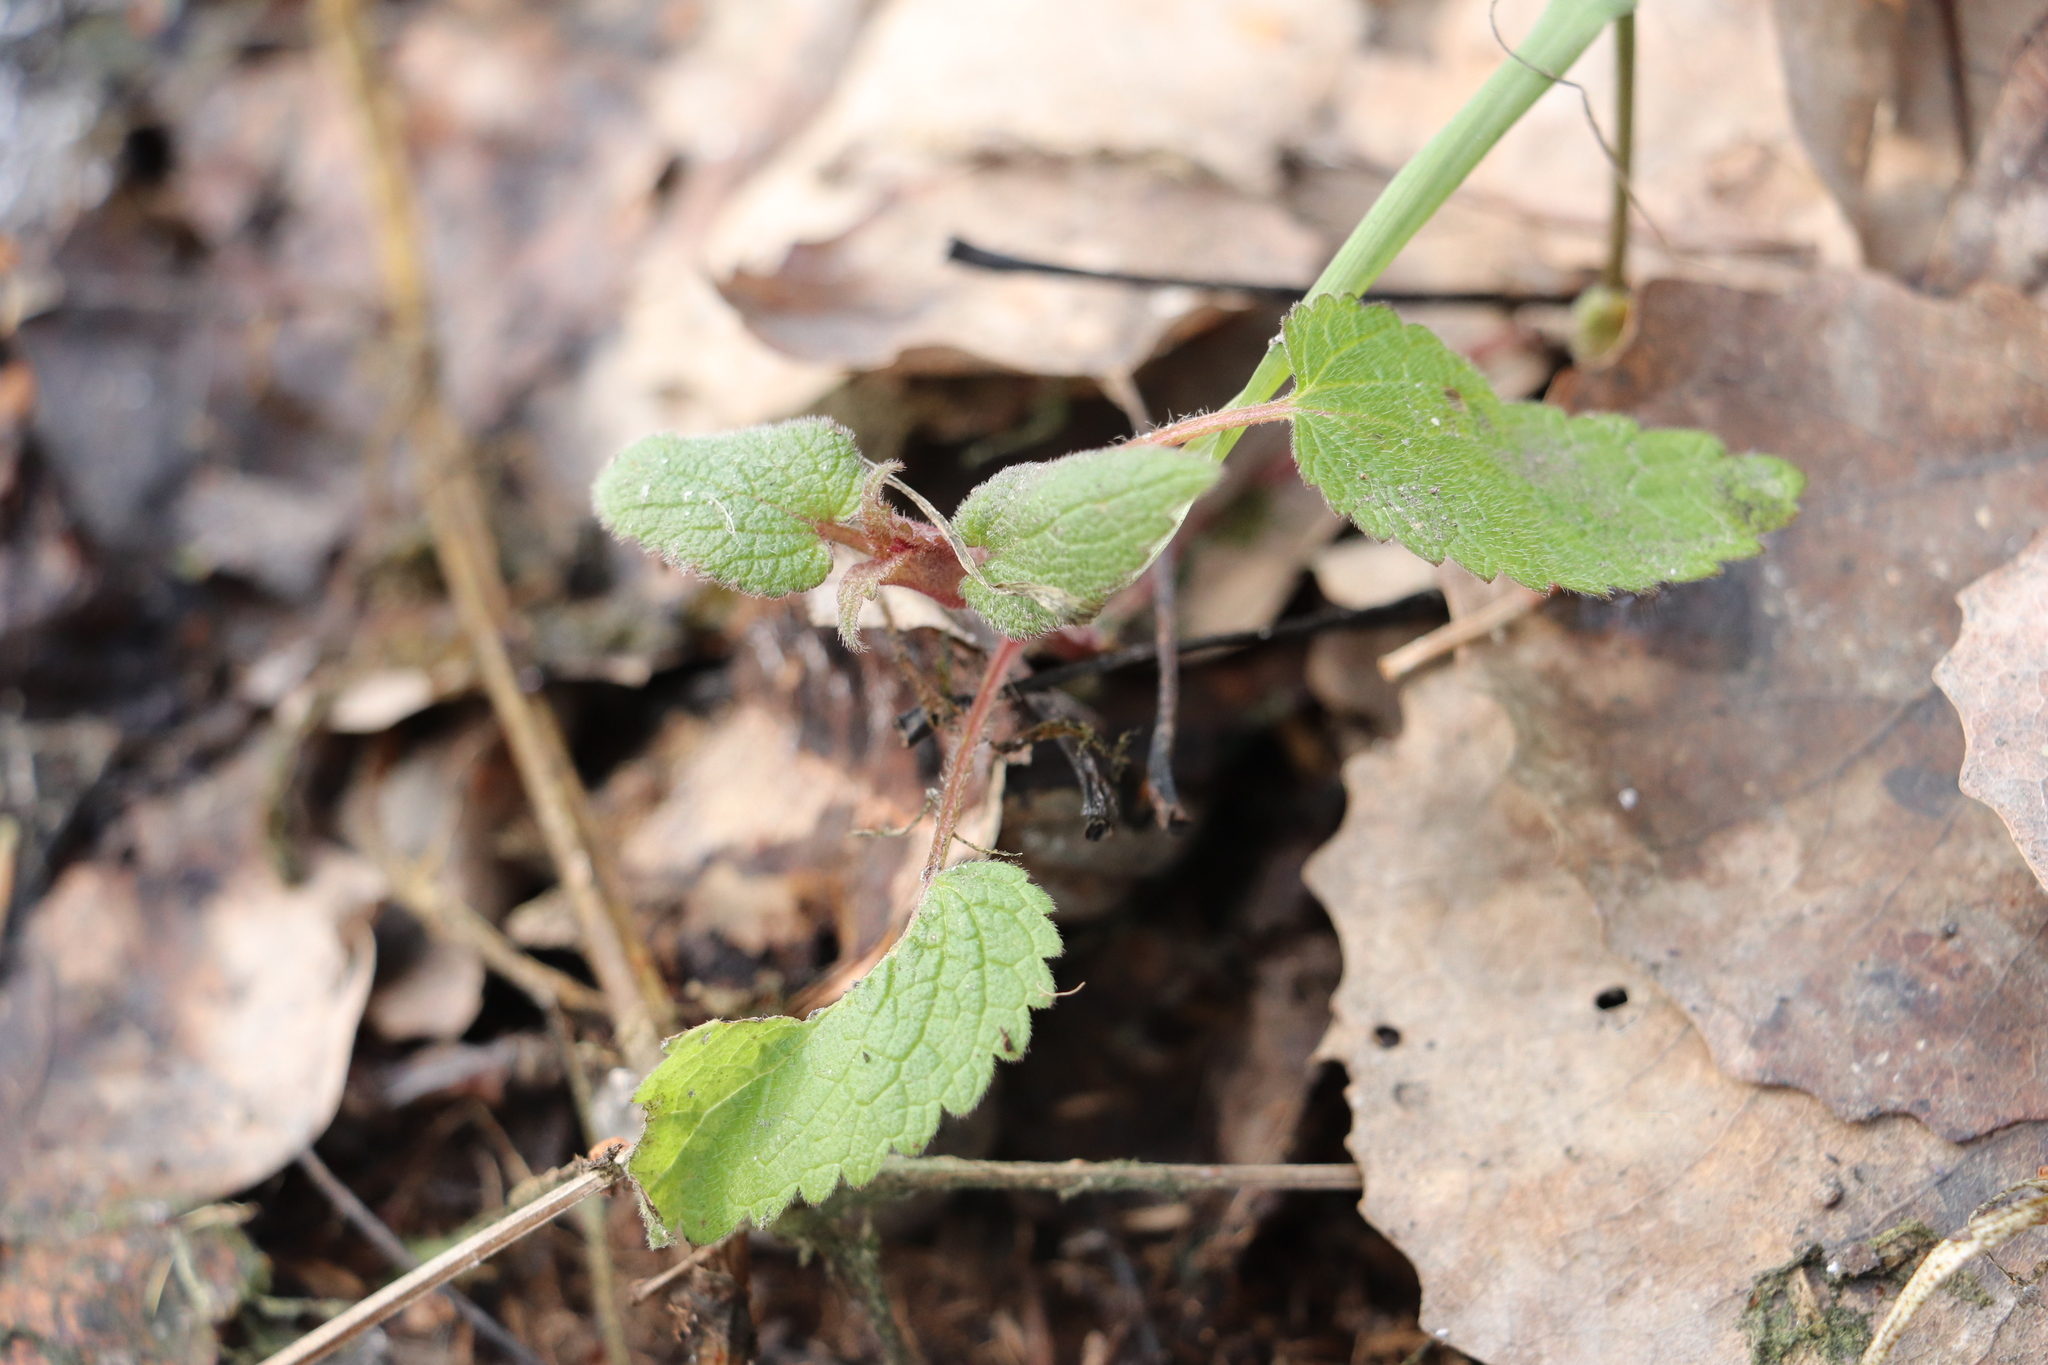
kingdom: Plantae
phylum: Tracheophyta
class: Magnoliopsida
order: Lamiales
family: Lamiaceae
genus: Lamium
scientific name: Lamium album
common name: White dead-nettle
